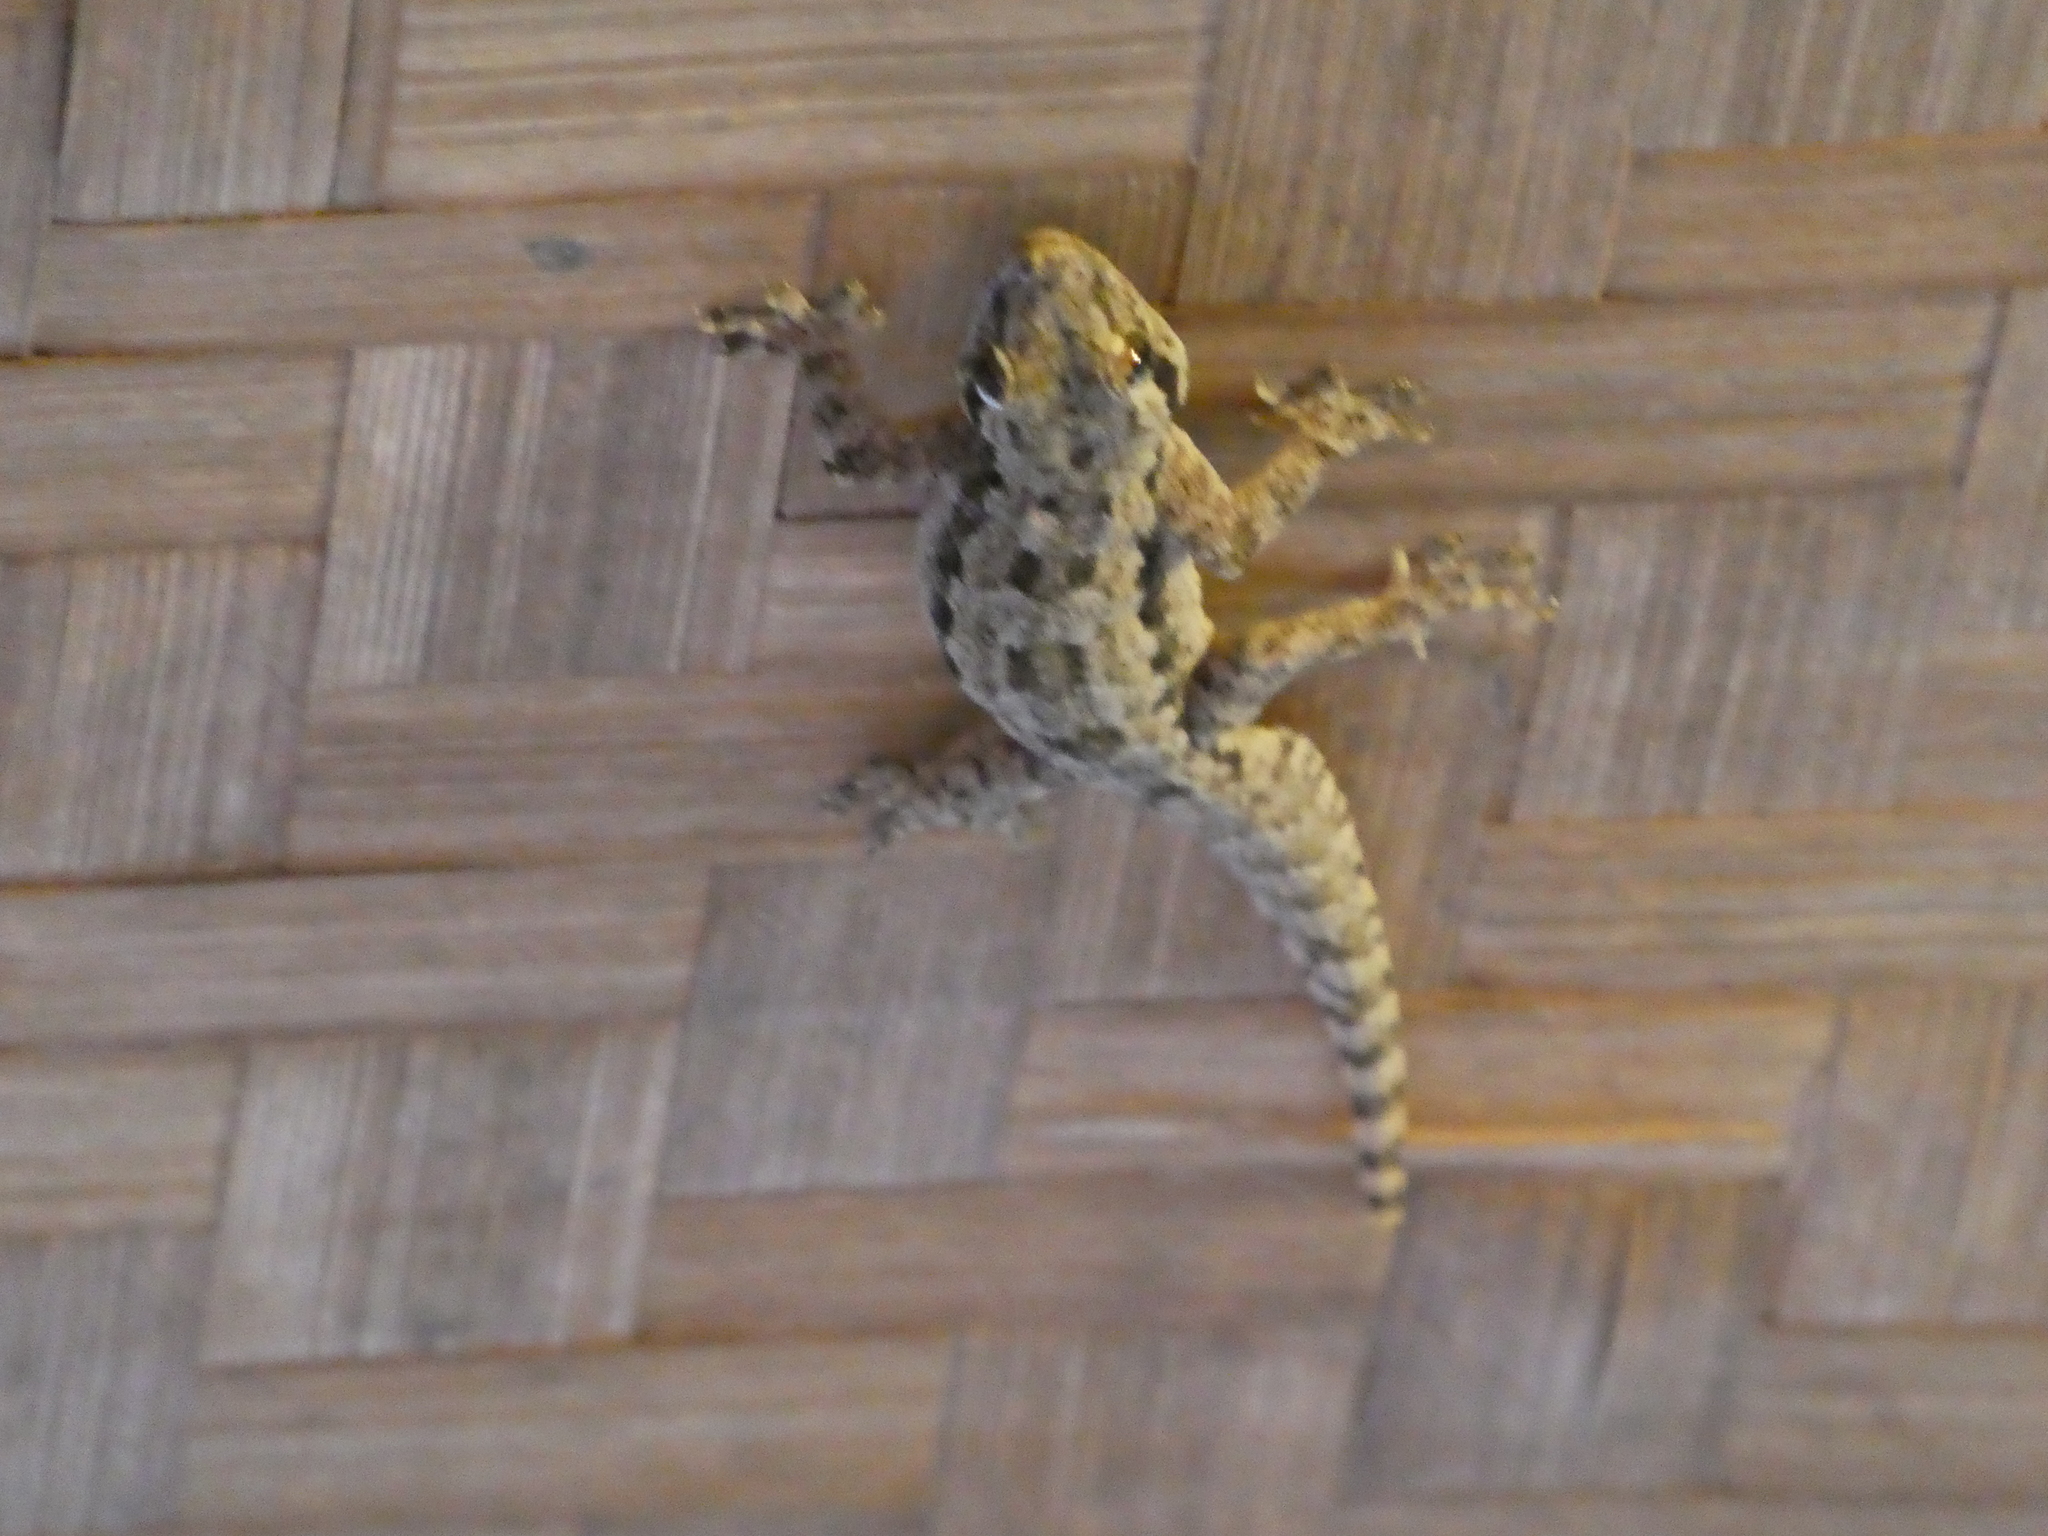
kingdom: Animalia
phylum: Chordata
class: Squamata
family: Gekkonidae
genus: Hemidactylus
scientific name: Hemidactylus platyurus
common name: Flat-tailed house gecko
